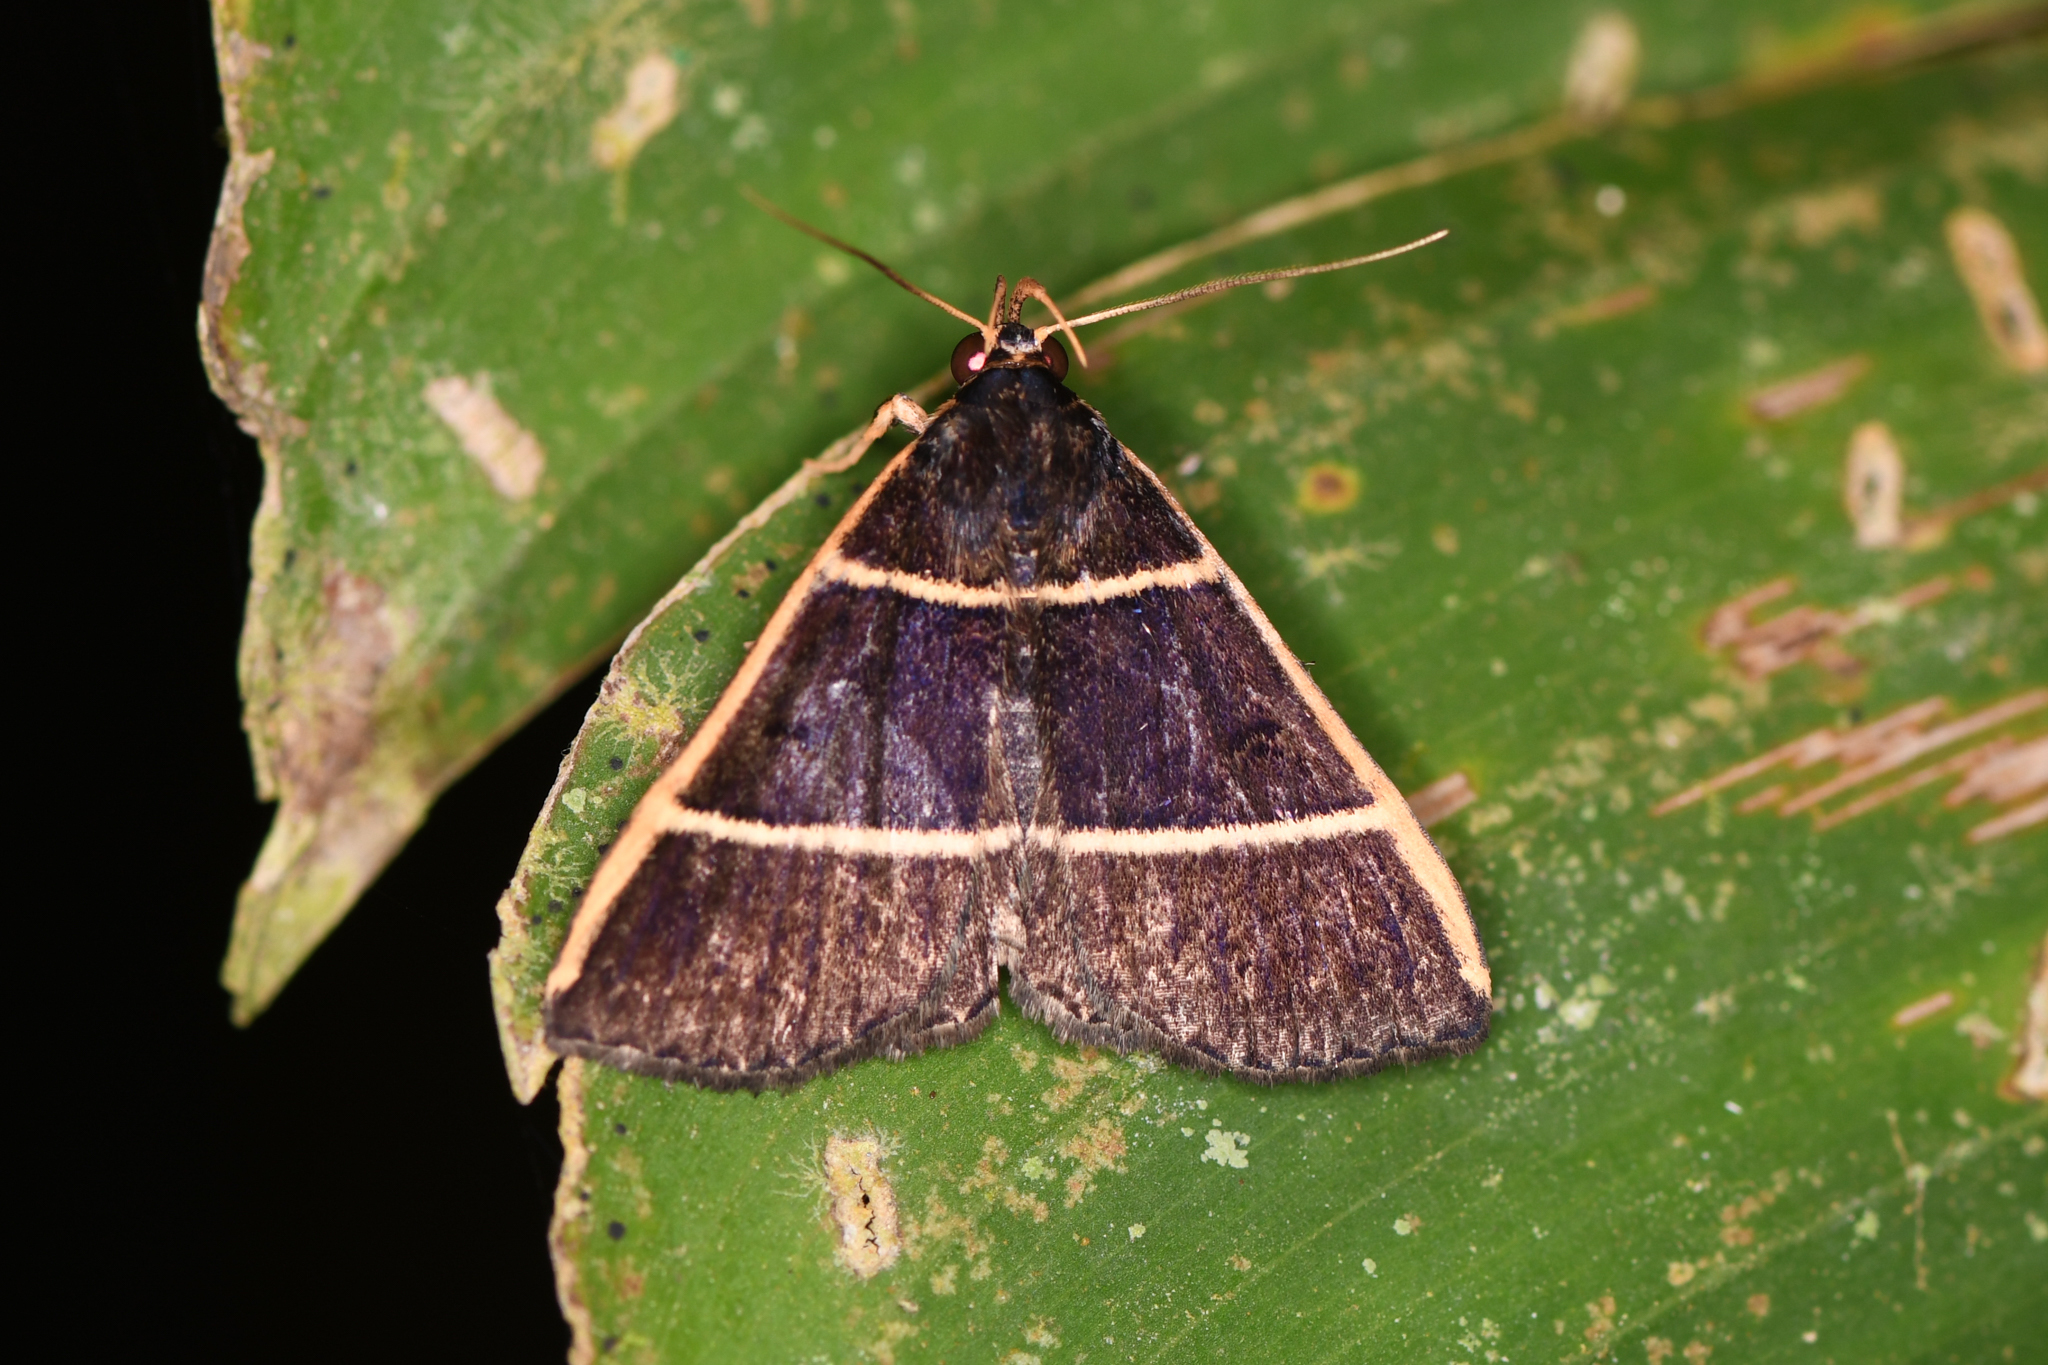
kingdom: Animalia
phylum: Arthropoda
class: Insecta
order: Lepidoptera
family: Erebidae
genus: Scopifera
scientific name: Scopifera antelia
